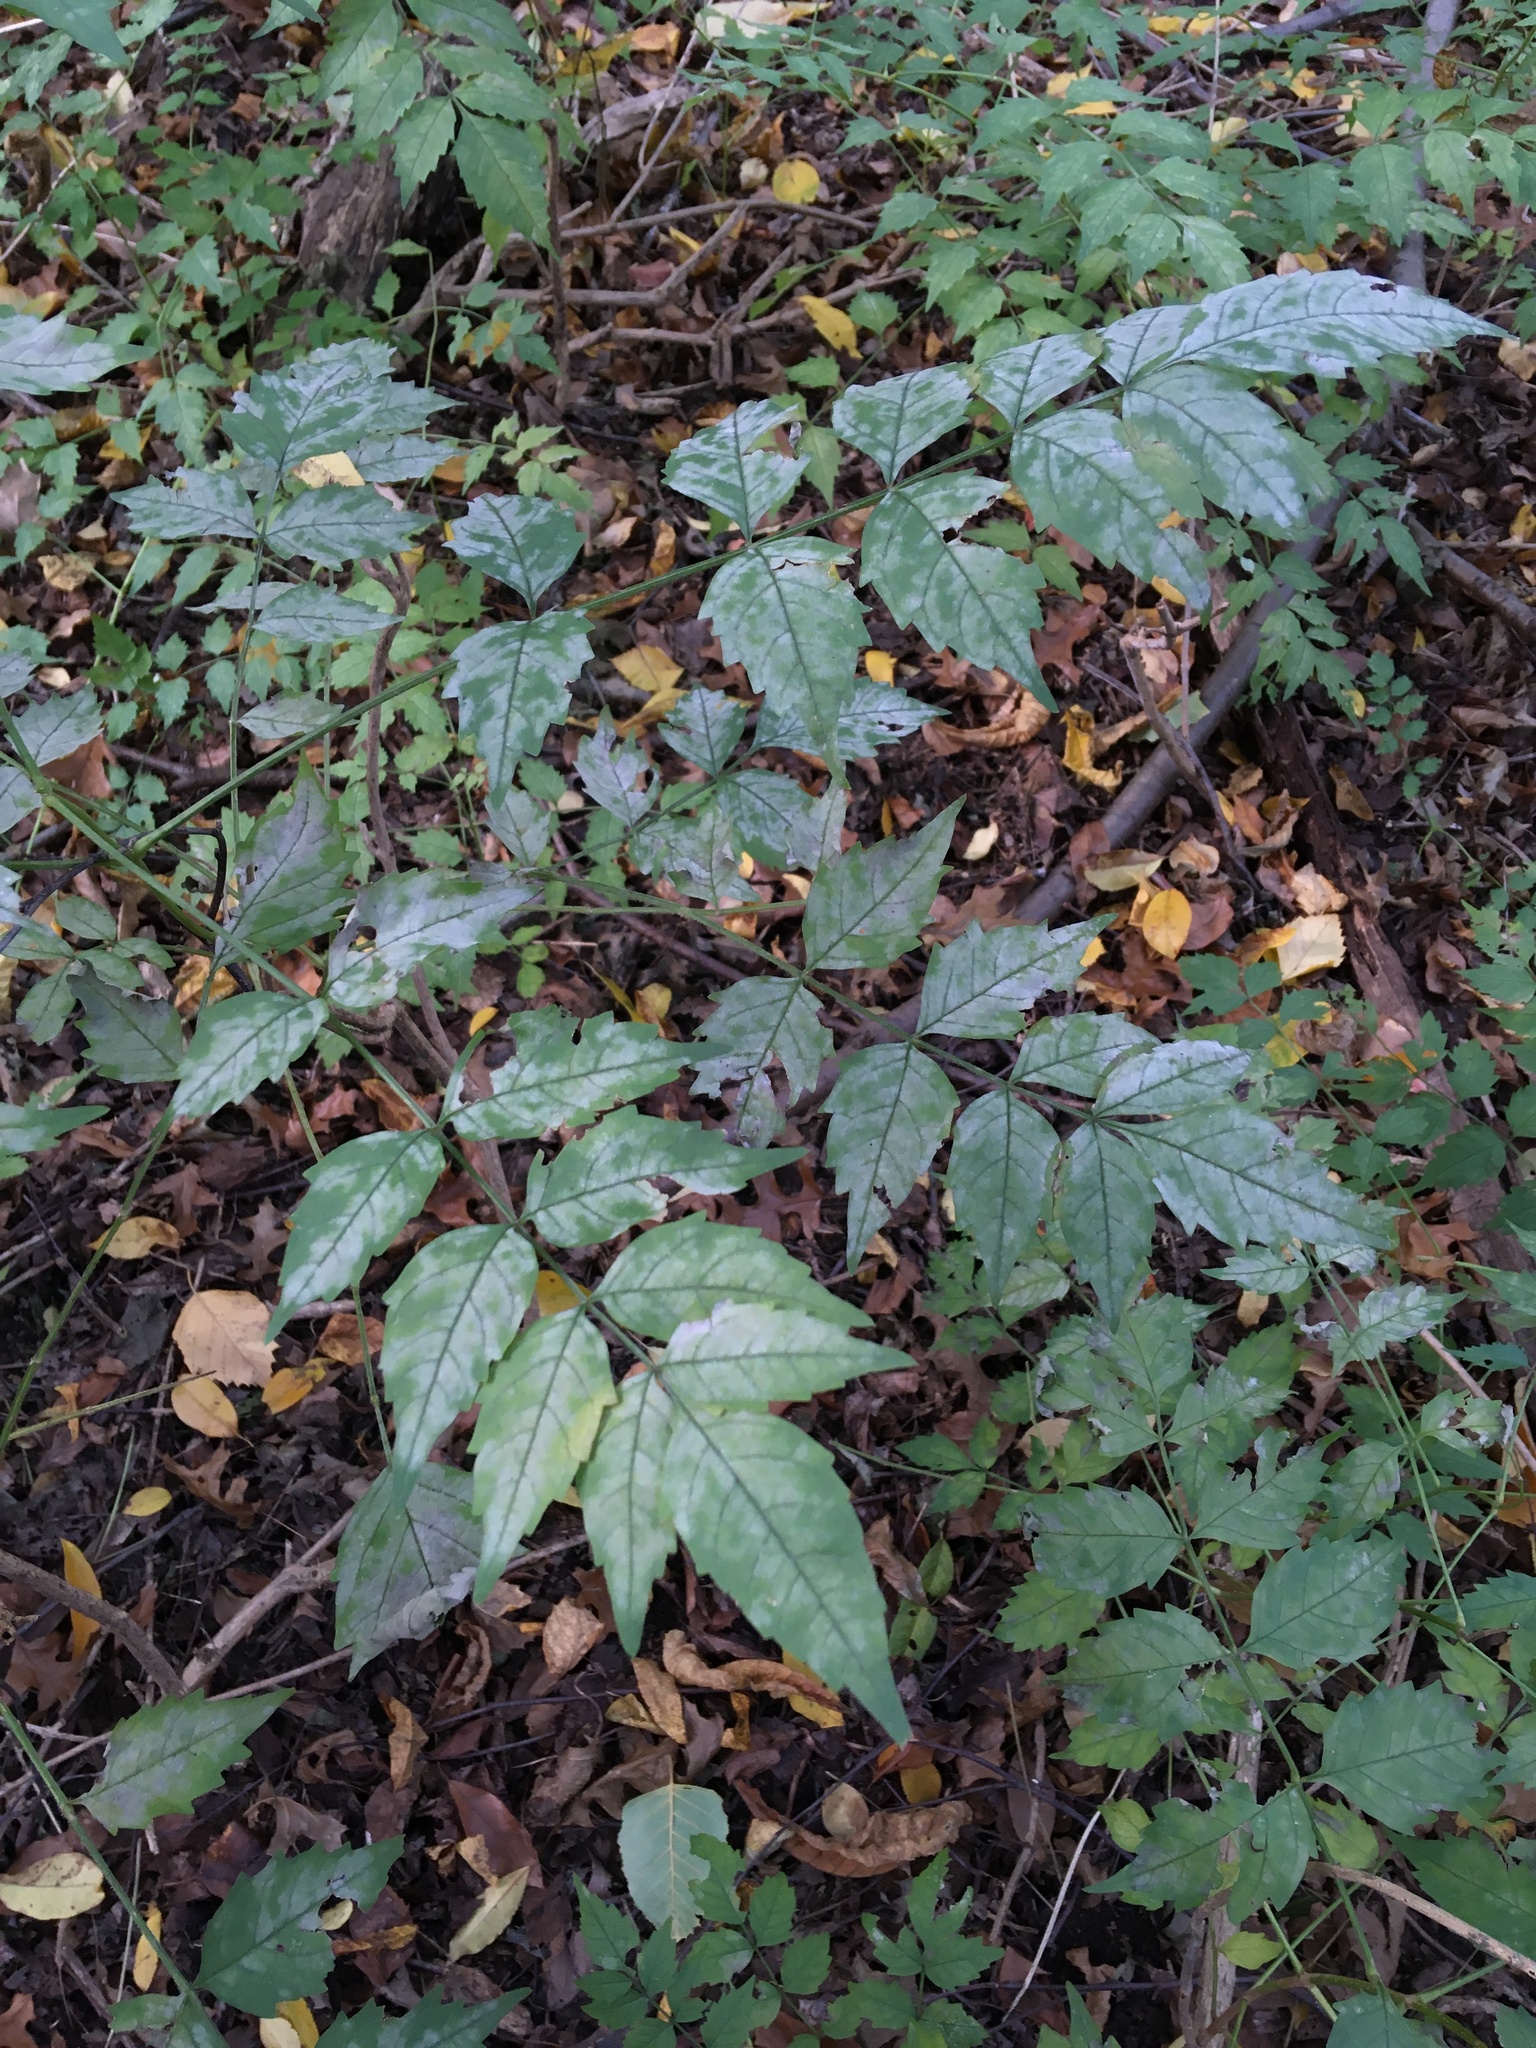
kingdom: Plantae
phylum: Tracheophyta
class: Magnoliopsida
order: Lamiales
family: Bignoniaceae
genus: Campsis
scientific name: Campsis radicans
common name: Trumpet-creeper
